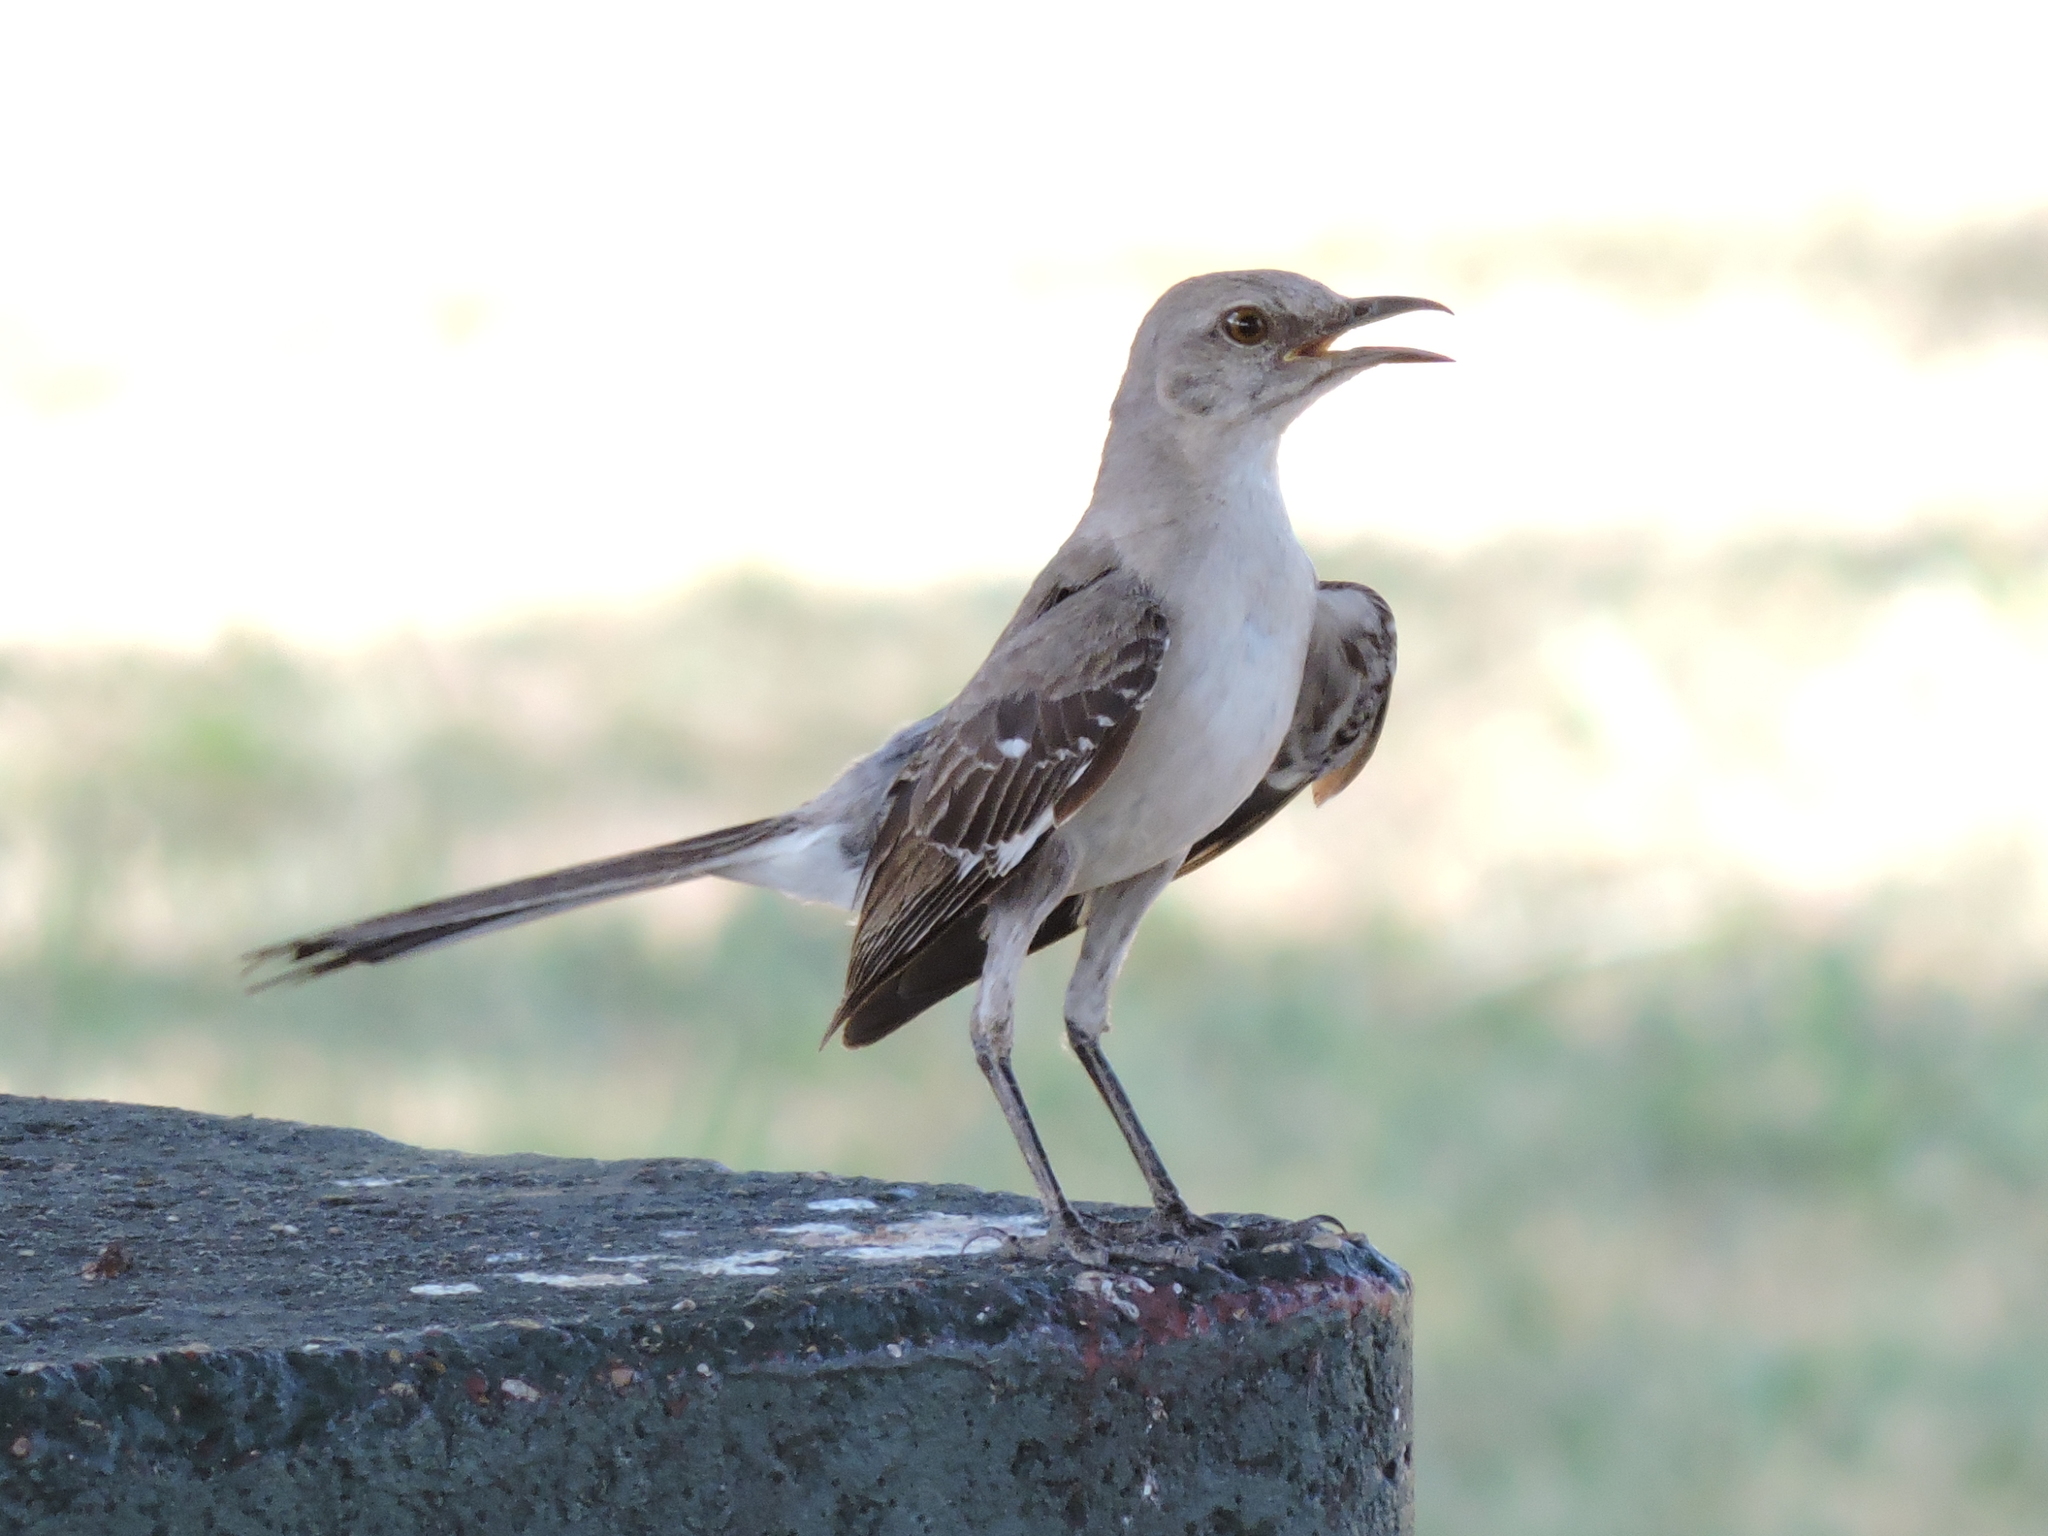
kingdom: Animalia
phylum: Chordata
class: Aves
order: Passeriformes
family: Mimidae
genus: Mimus
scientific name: Mimus polyglottos
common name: Northern mockingbird
